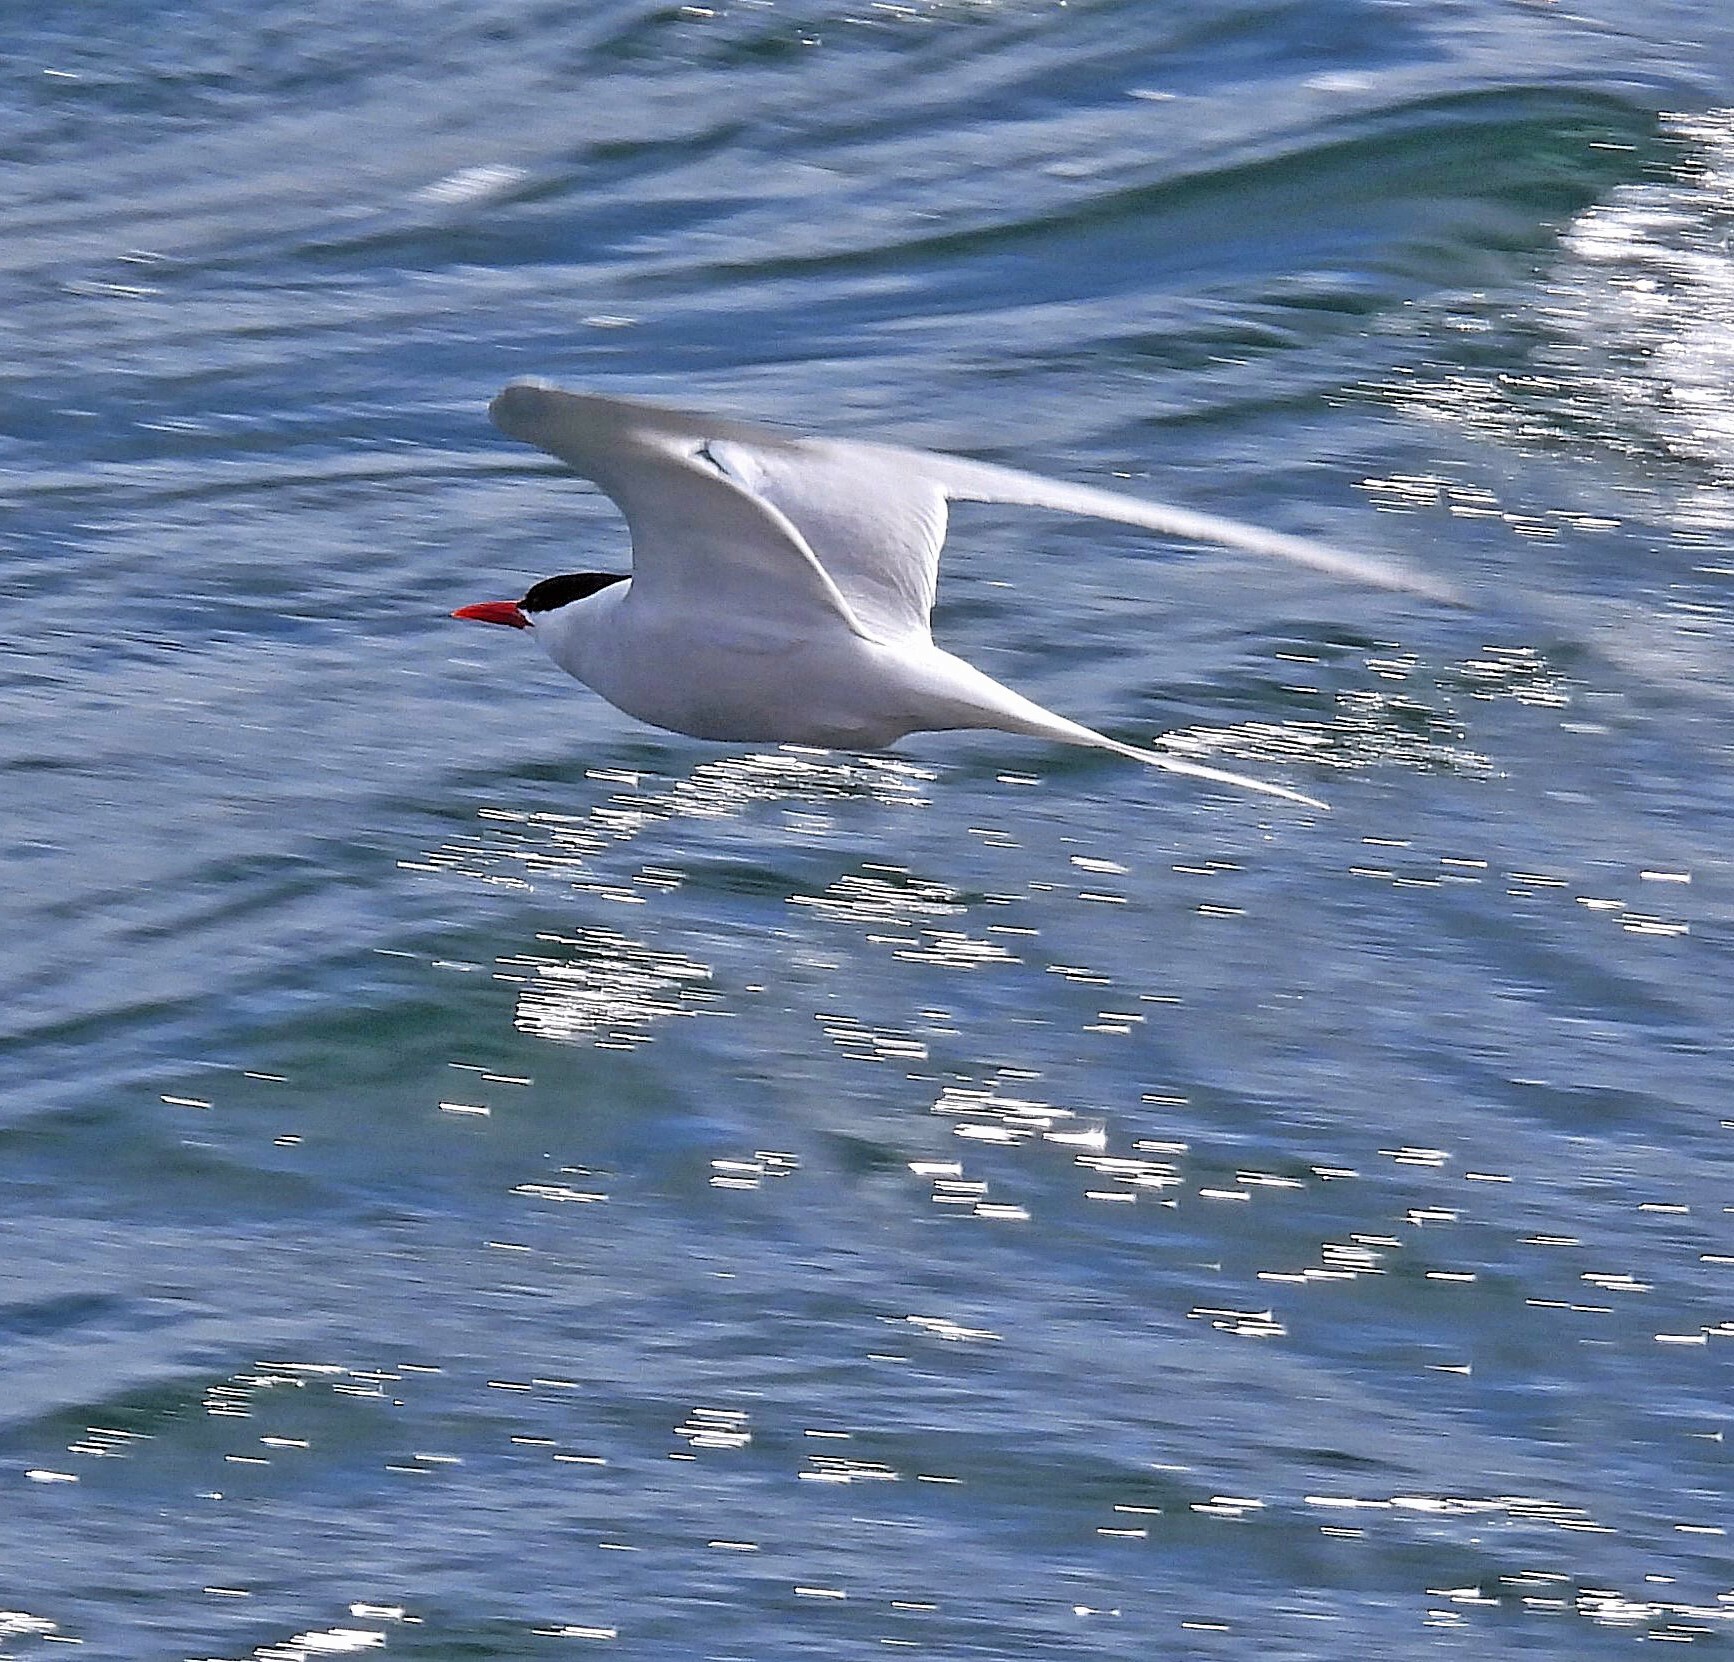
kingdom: Animalia
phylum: Chordata
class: Aves
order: Charadriiformes
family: Laridae
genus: Sterna
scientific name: Sterna hirundinacea
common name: South american tern
